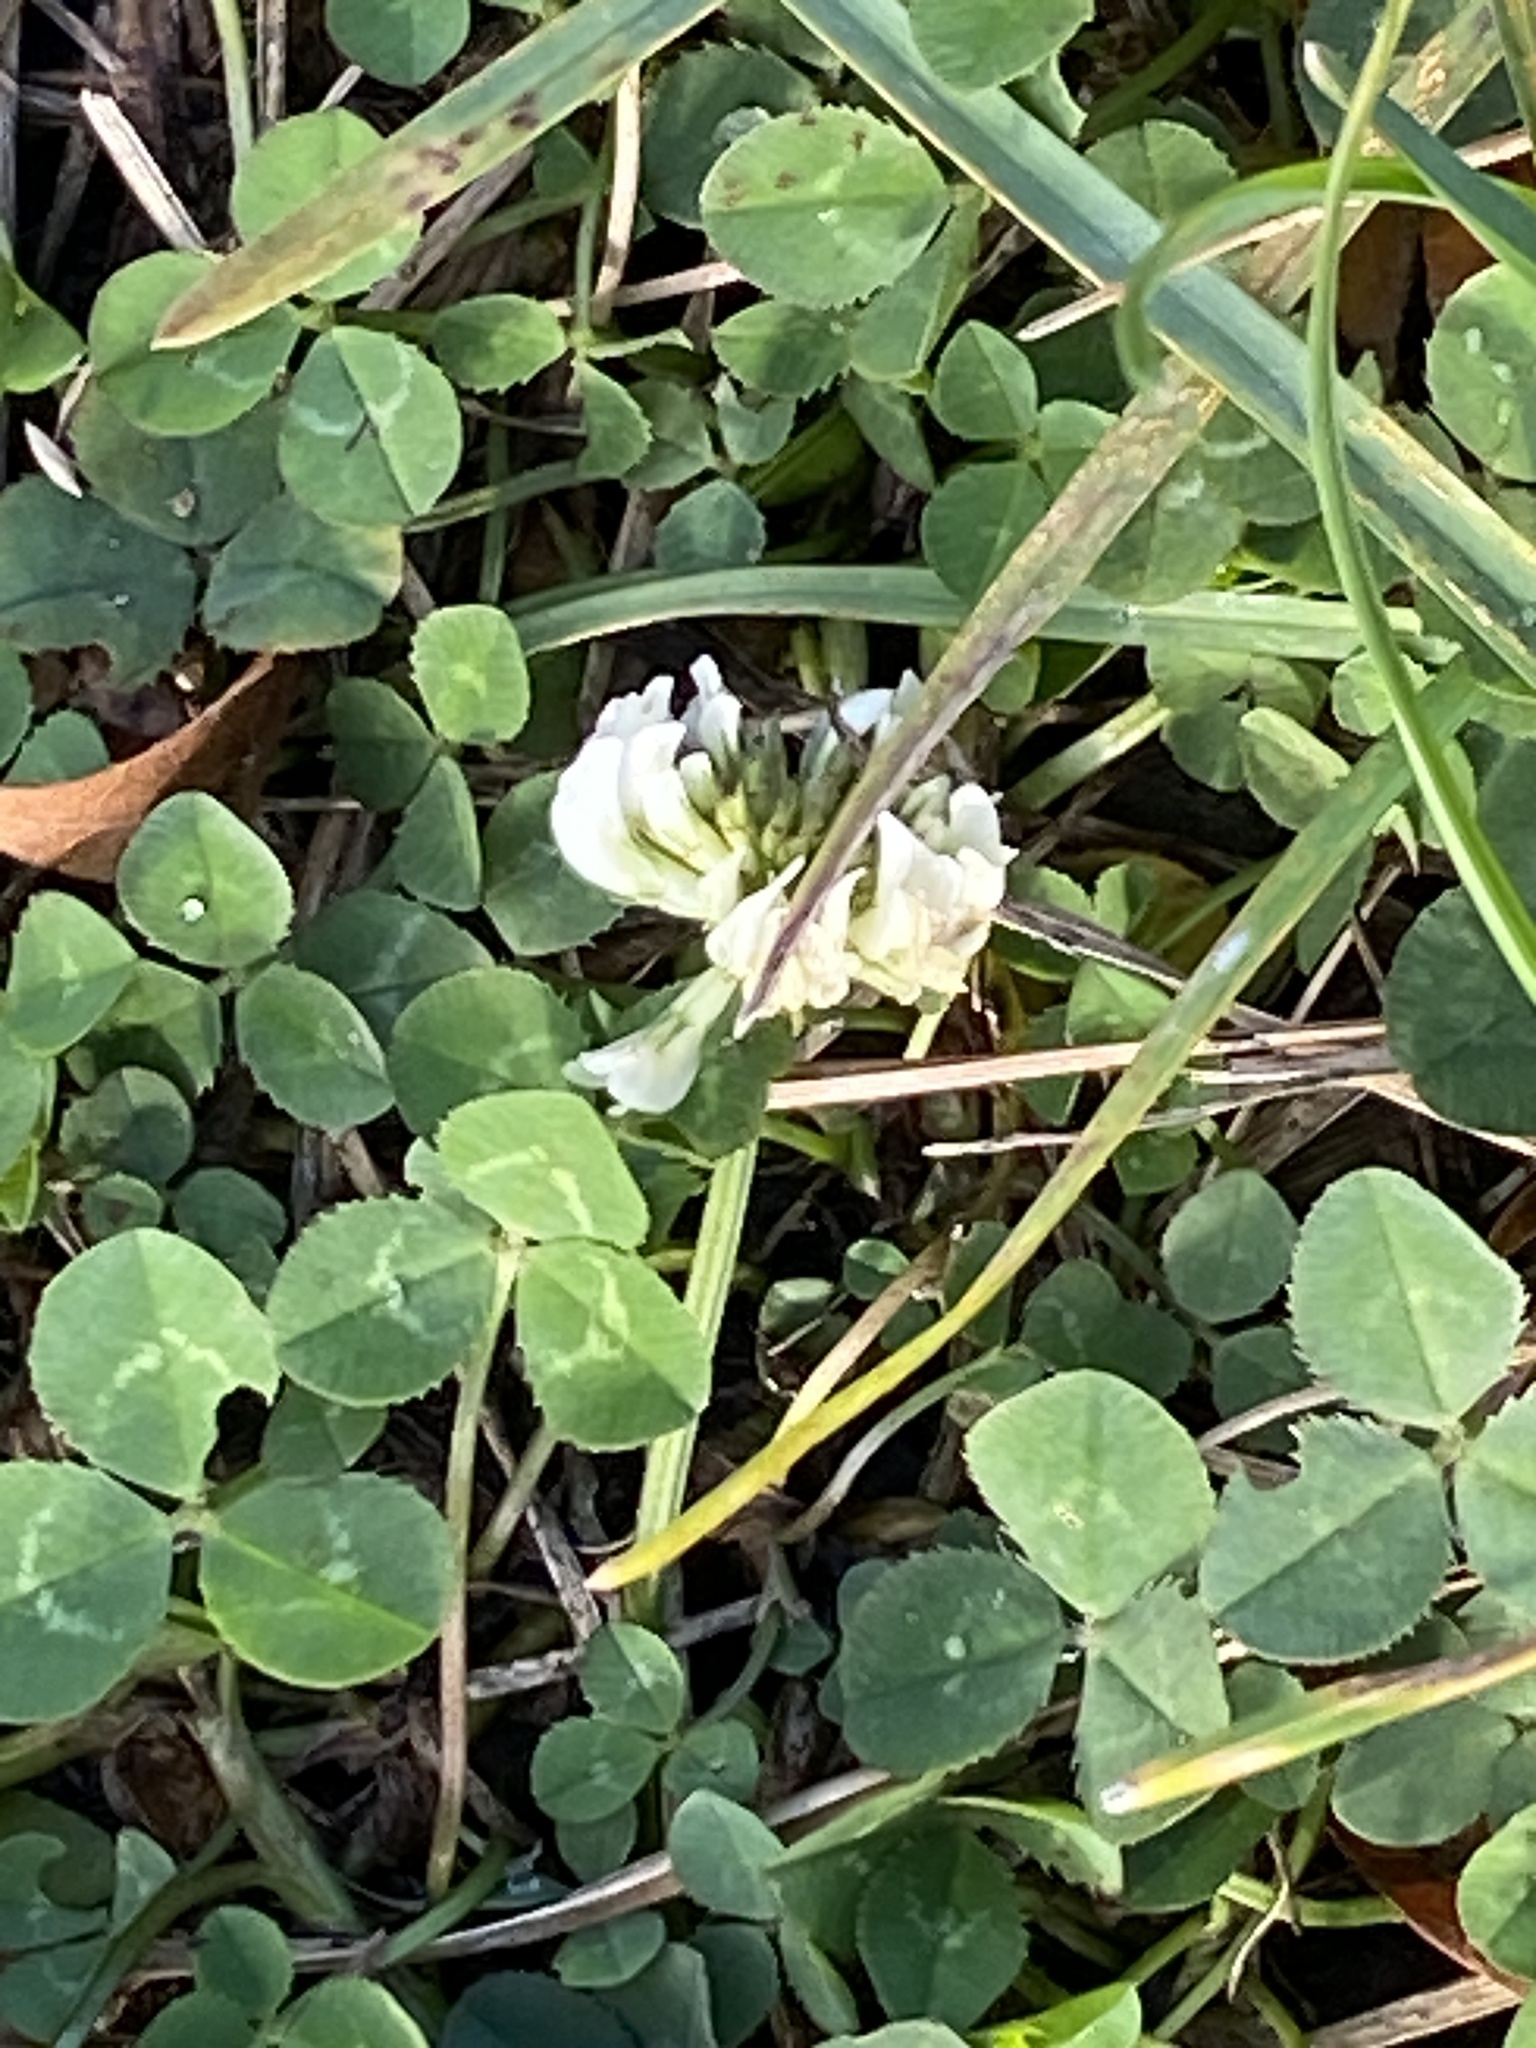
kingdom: Plantae
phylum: Tracheophyta
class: Magnoliopsida
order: Fabales
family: Fabaceae
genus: Trifolium
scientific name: Trifolium repens
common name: White clover
